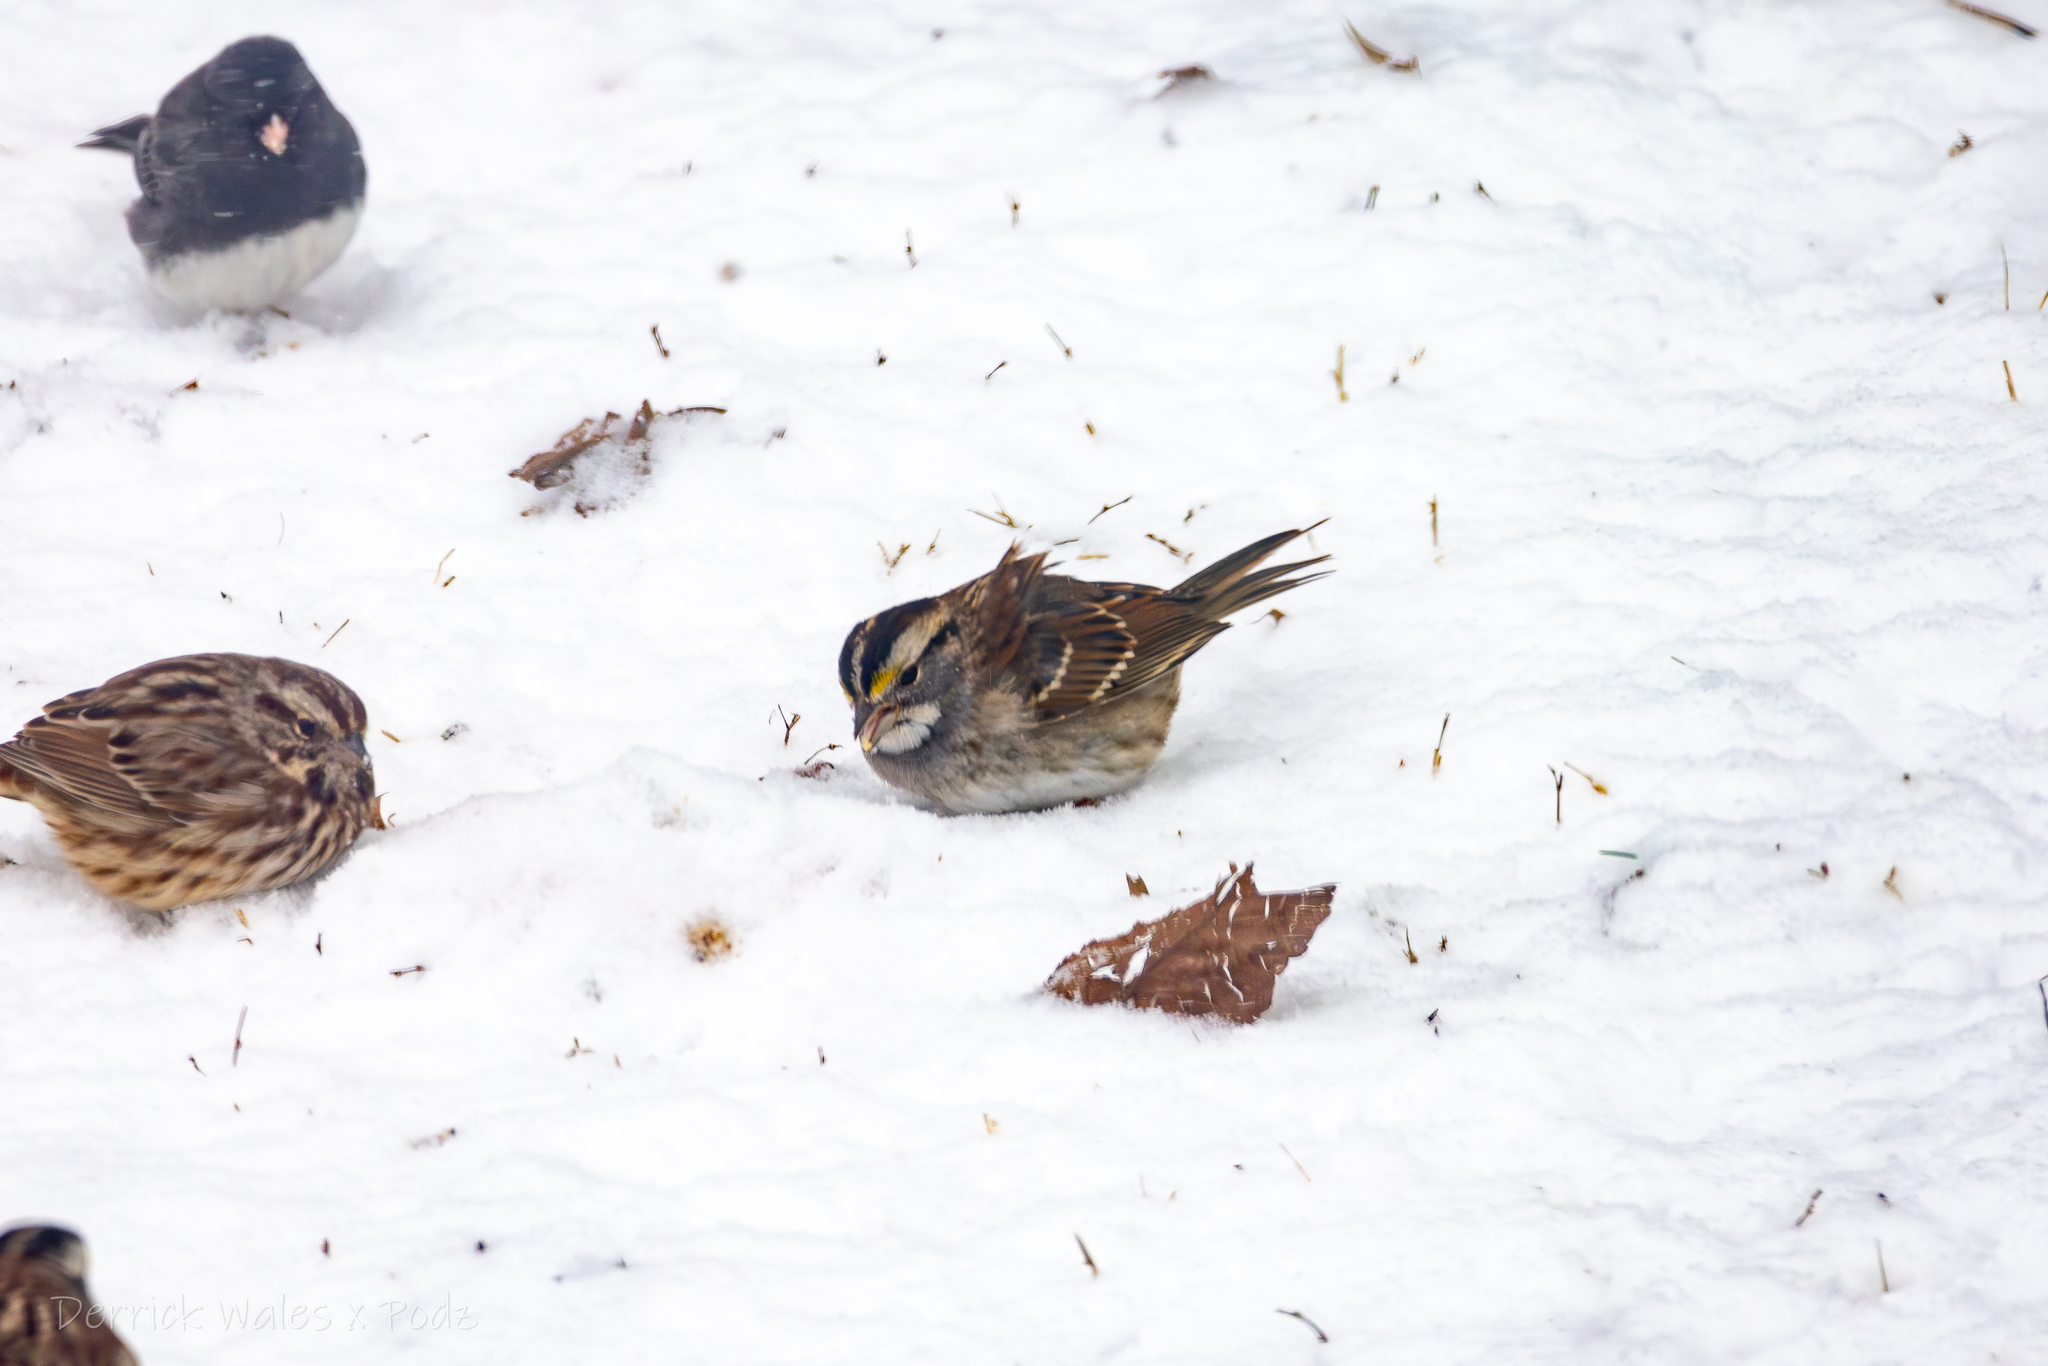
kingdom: Animalia
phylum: Chordata
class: Aves
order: Passeriformes
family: Passerellidae
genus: Zonotrichia
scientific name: Zonotrichia albicollis
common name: White-throated sparrow
